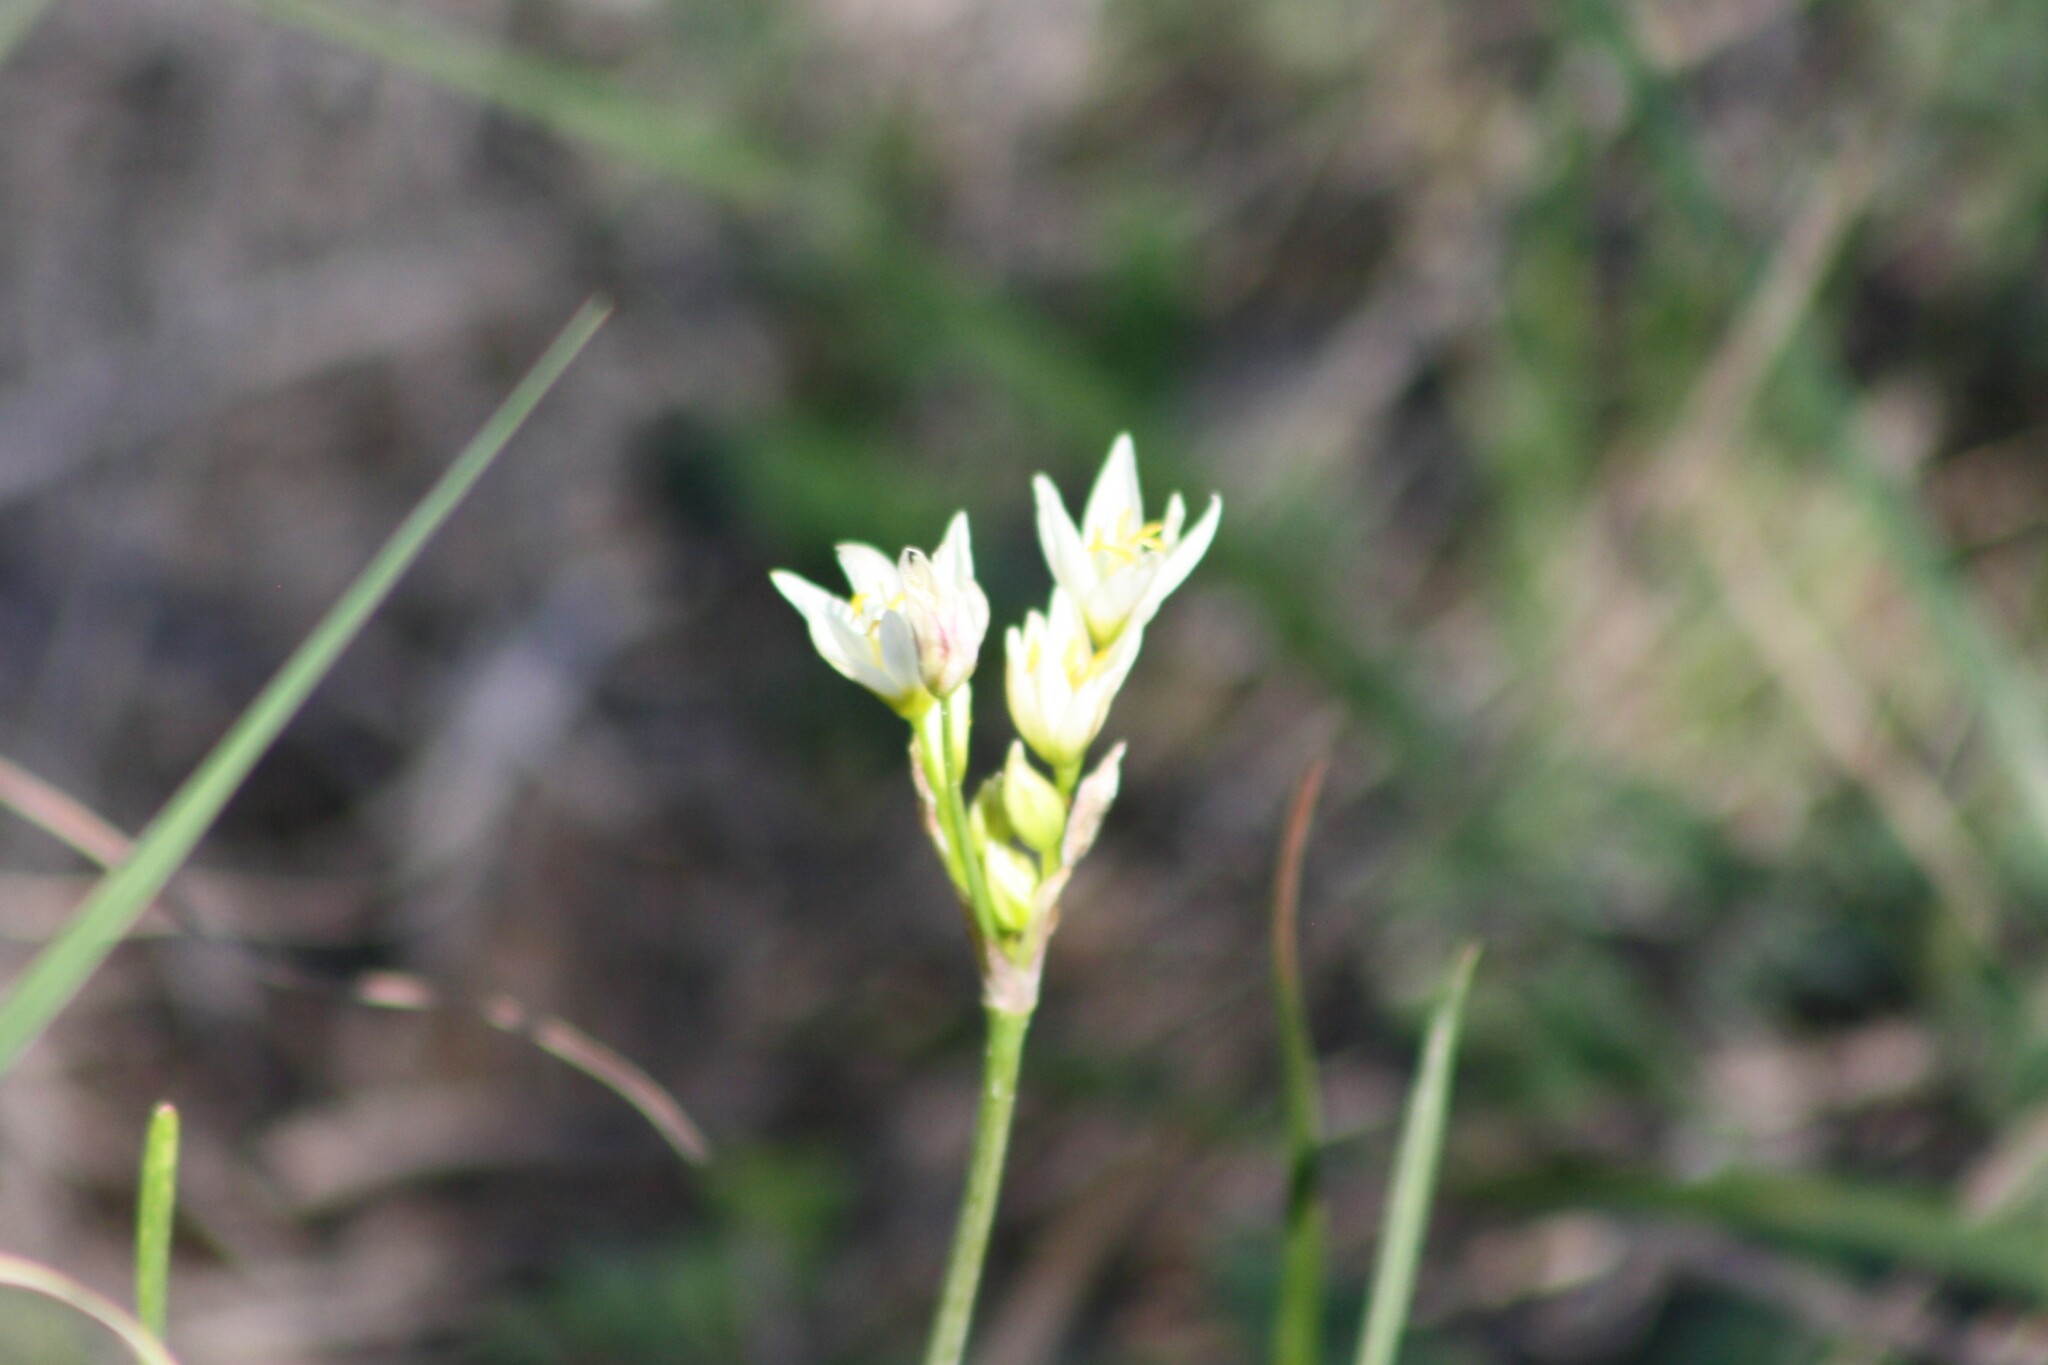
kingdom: Plantae
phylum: Tracheophyta
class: Liliopsida
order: Asparagales
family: Amaryllidaceae
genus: Nothoscordum
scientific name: Nothoscordum bivalve
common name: Crow-poison
